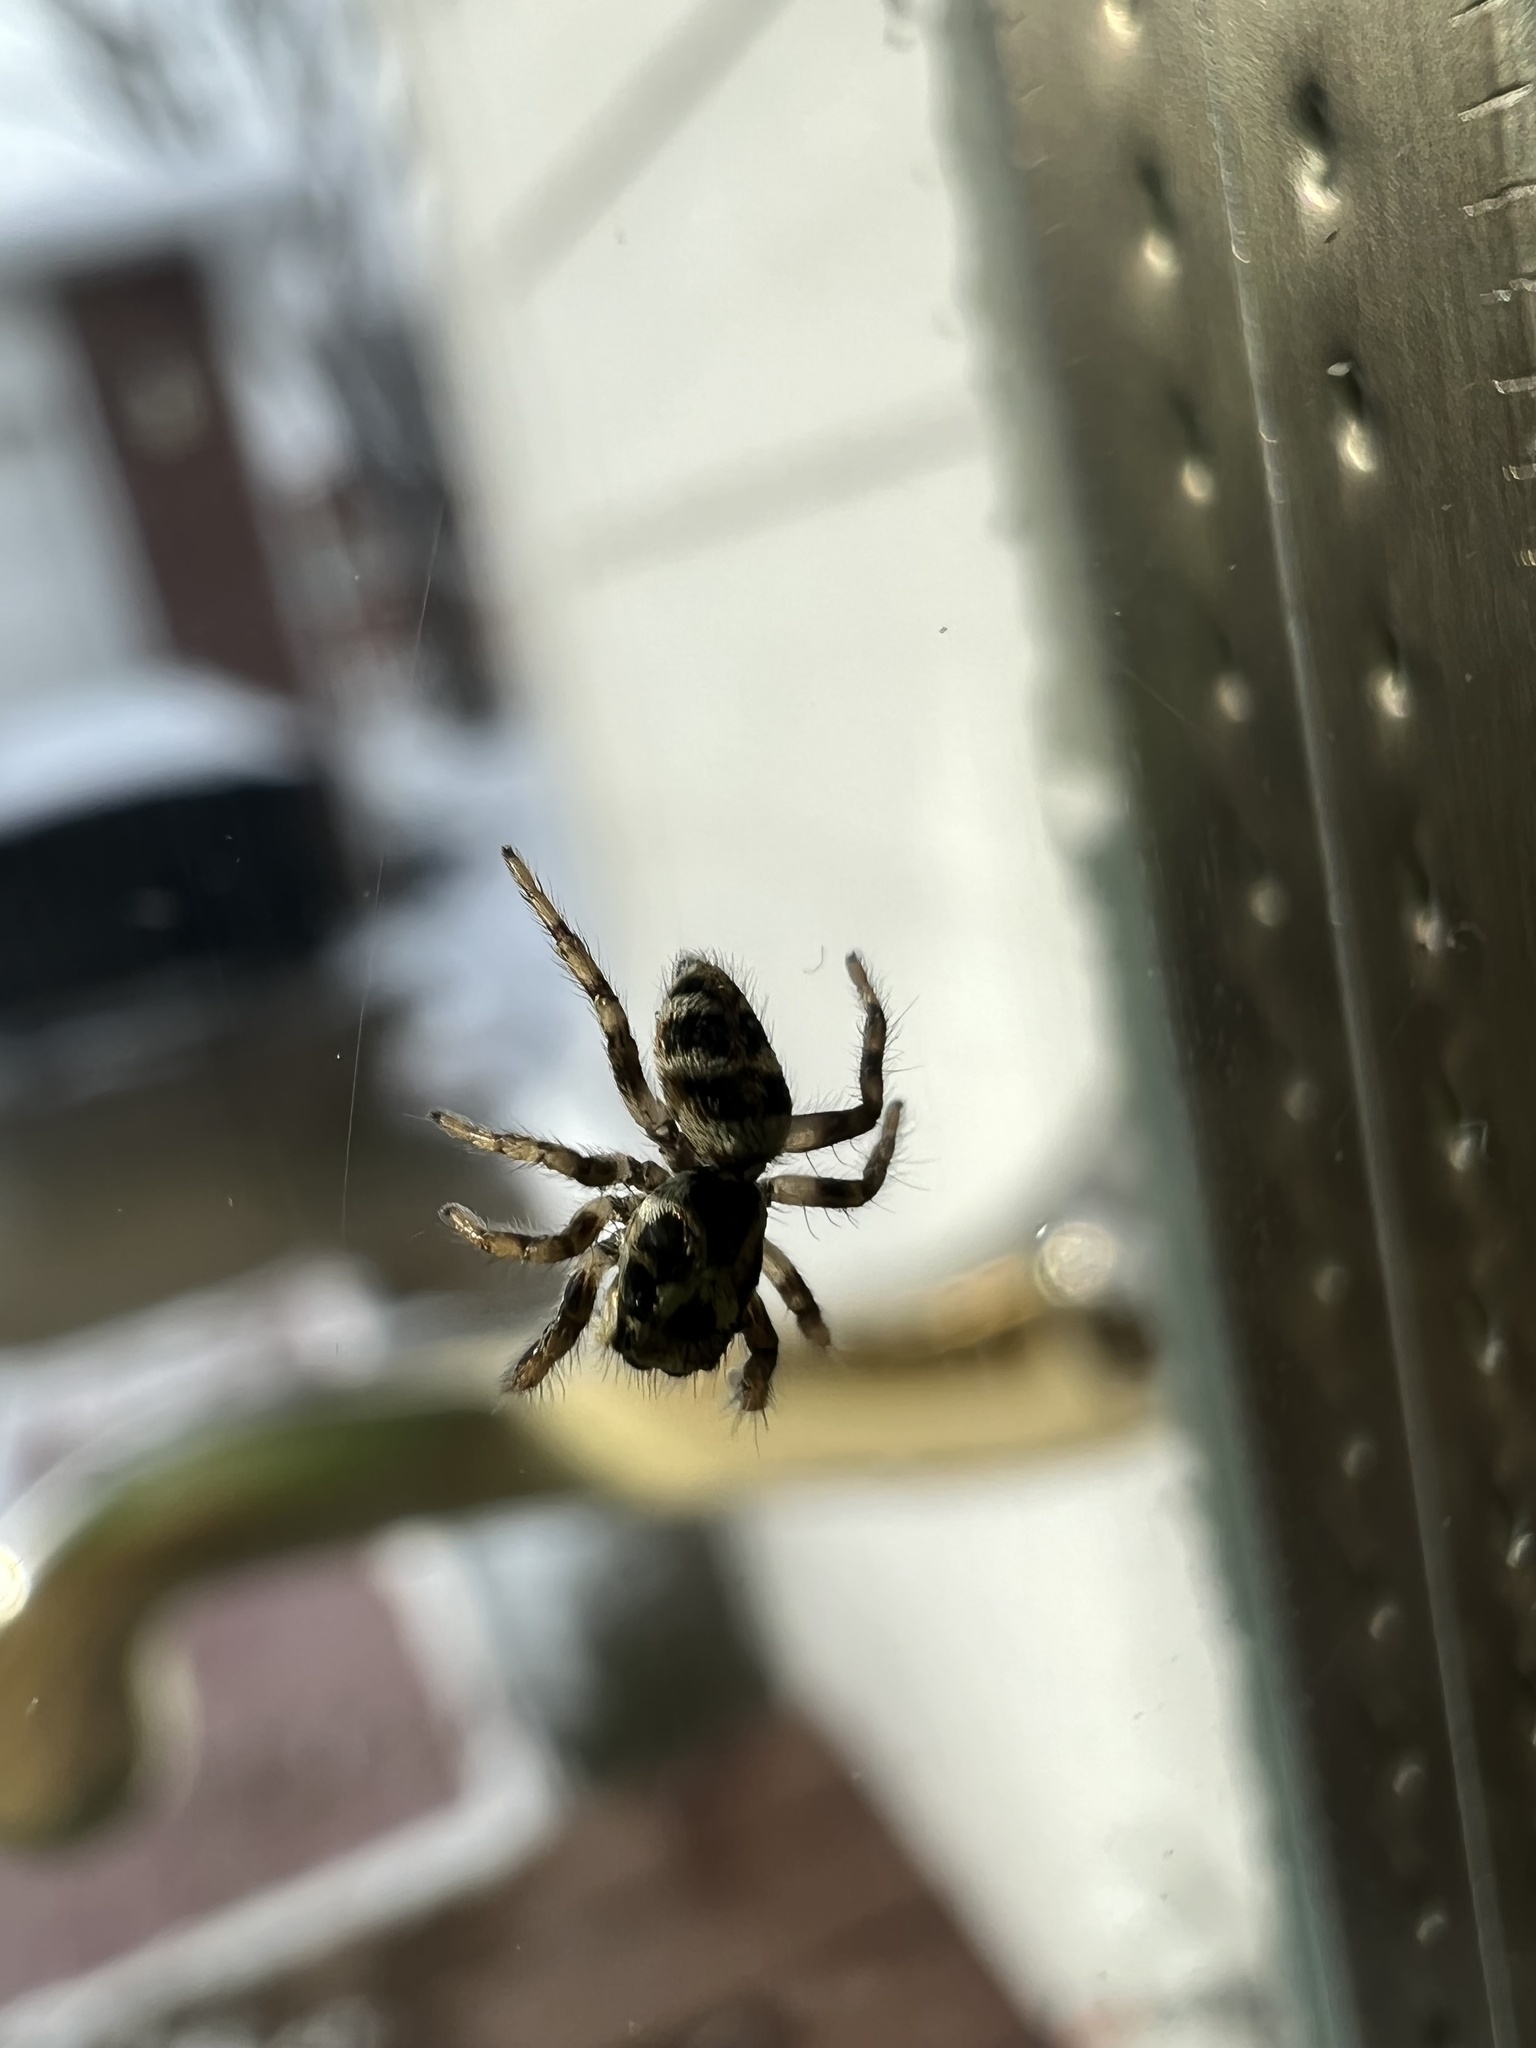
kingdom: Animalia
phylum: Arthropoda
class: Arachnida
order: Araneae
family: Salticidae
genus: Salticus
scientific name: Salticus scenicus
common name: Zebra jumper
